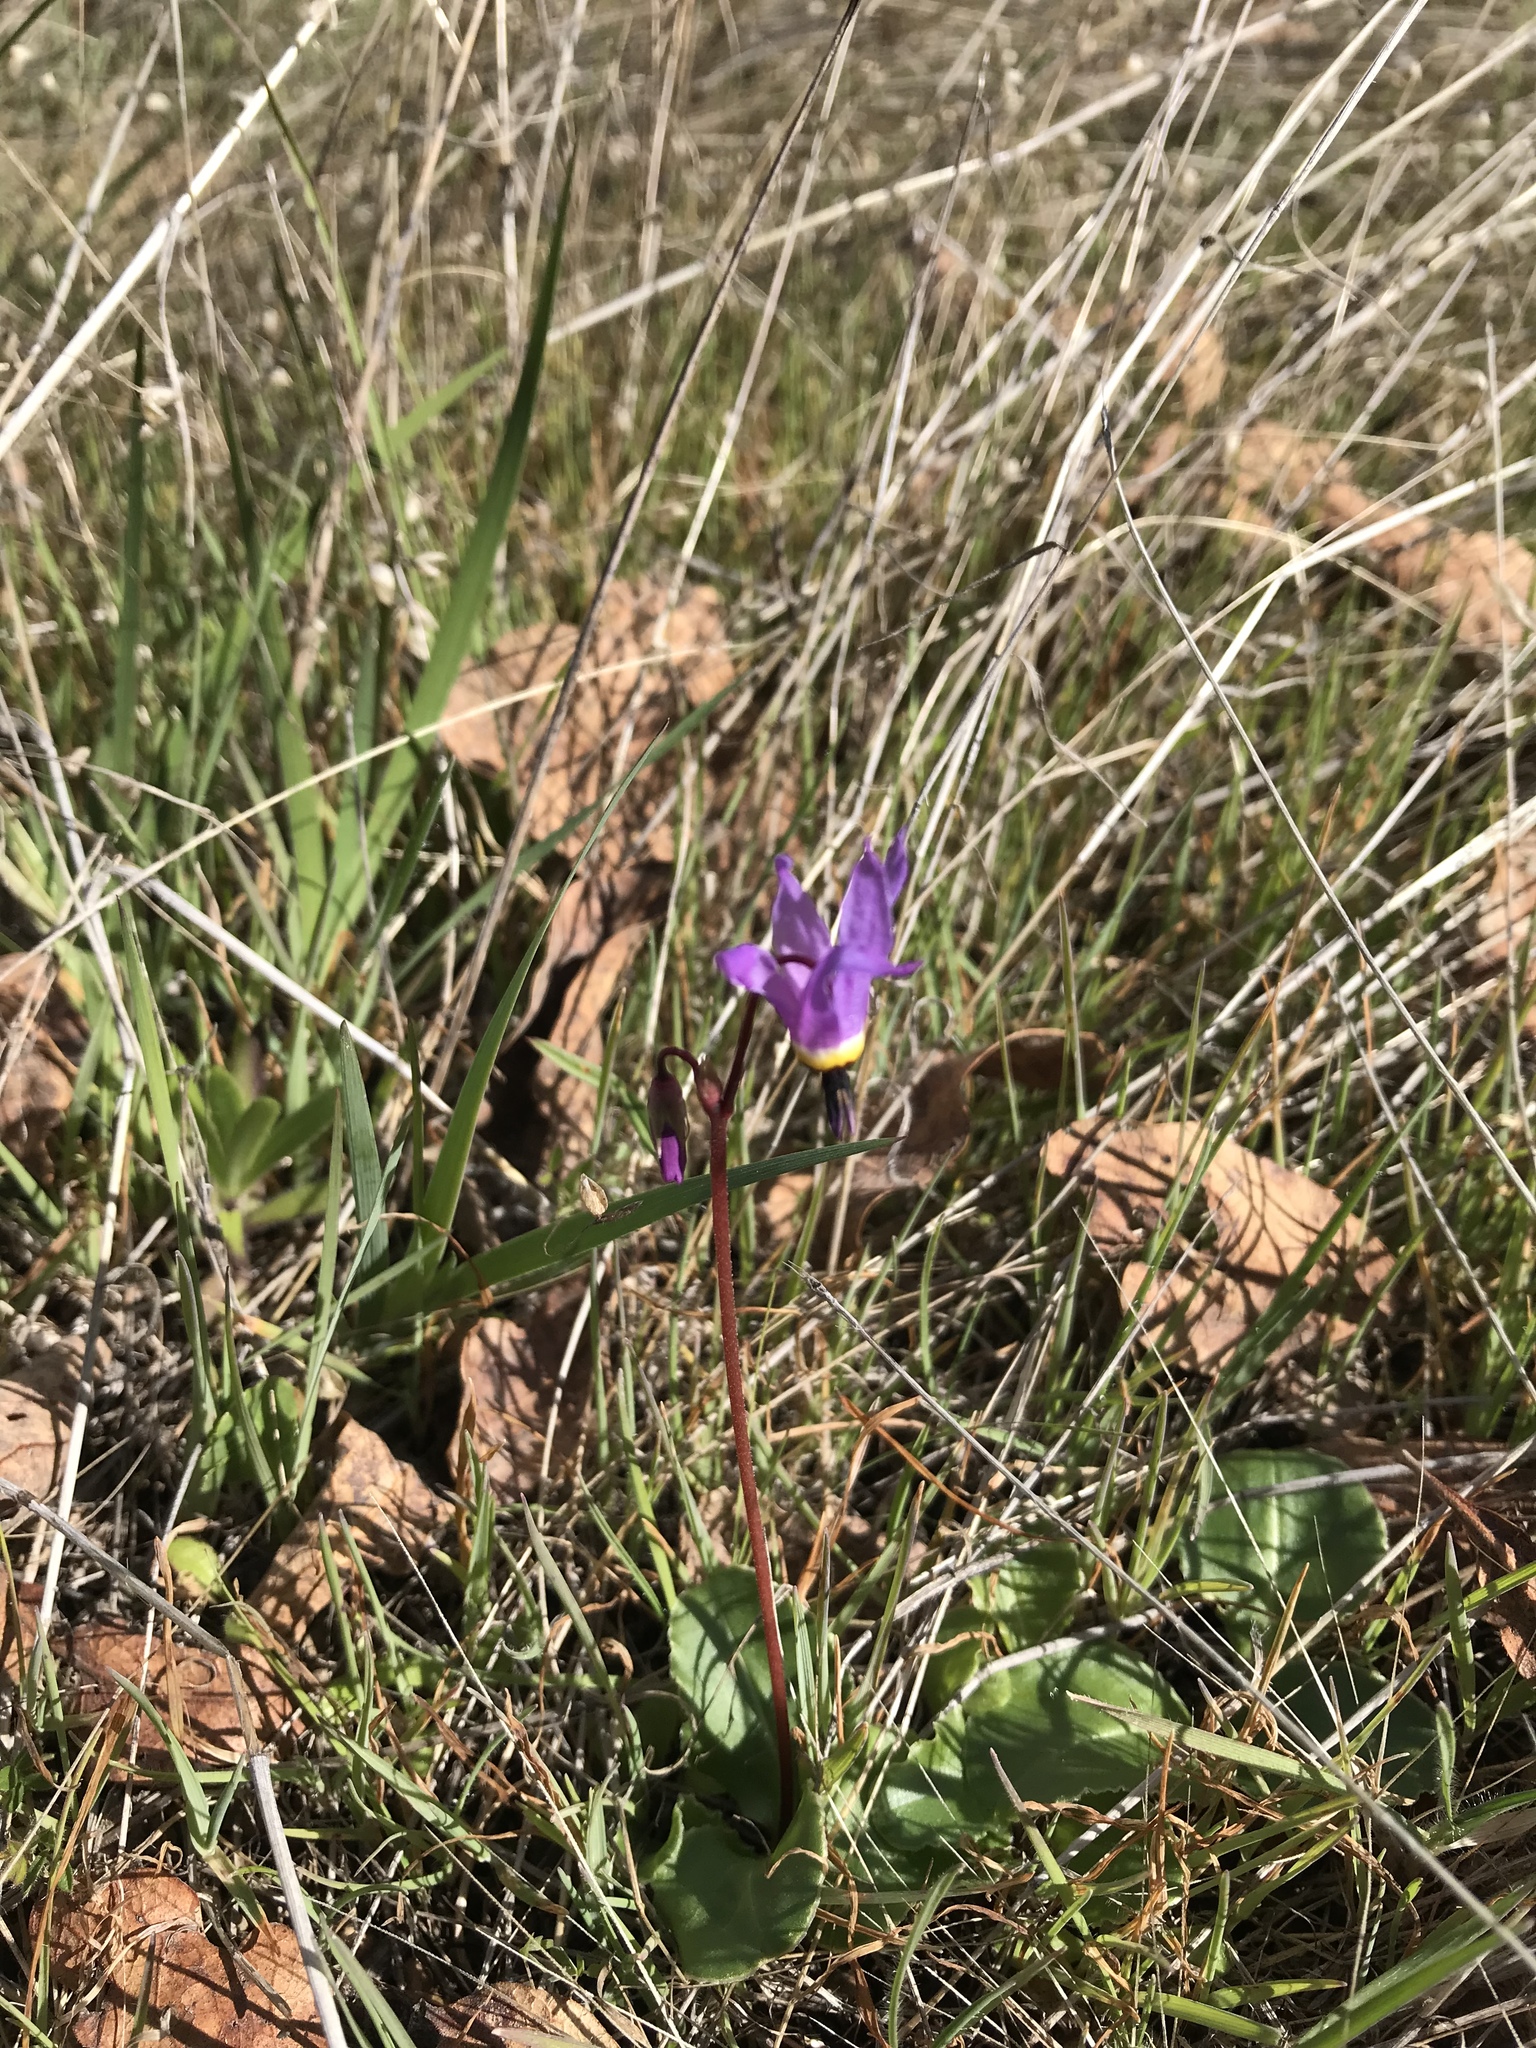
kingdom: Plantae
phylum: Tracheophyta
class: Magnoliopsida
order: Ericales
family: Primulaceae
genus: Dodecatheon
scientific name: Dodecatheon hendersonii
